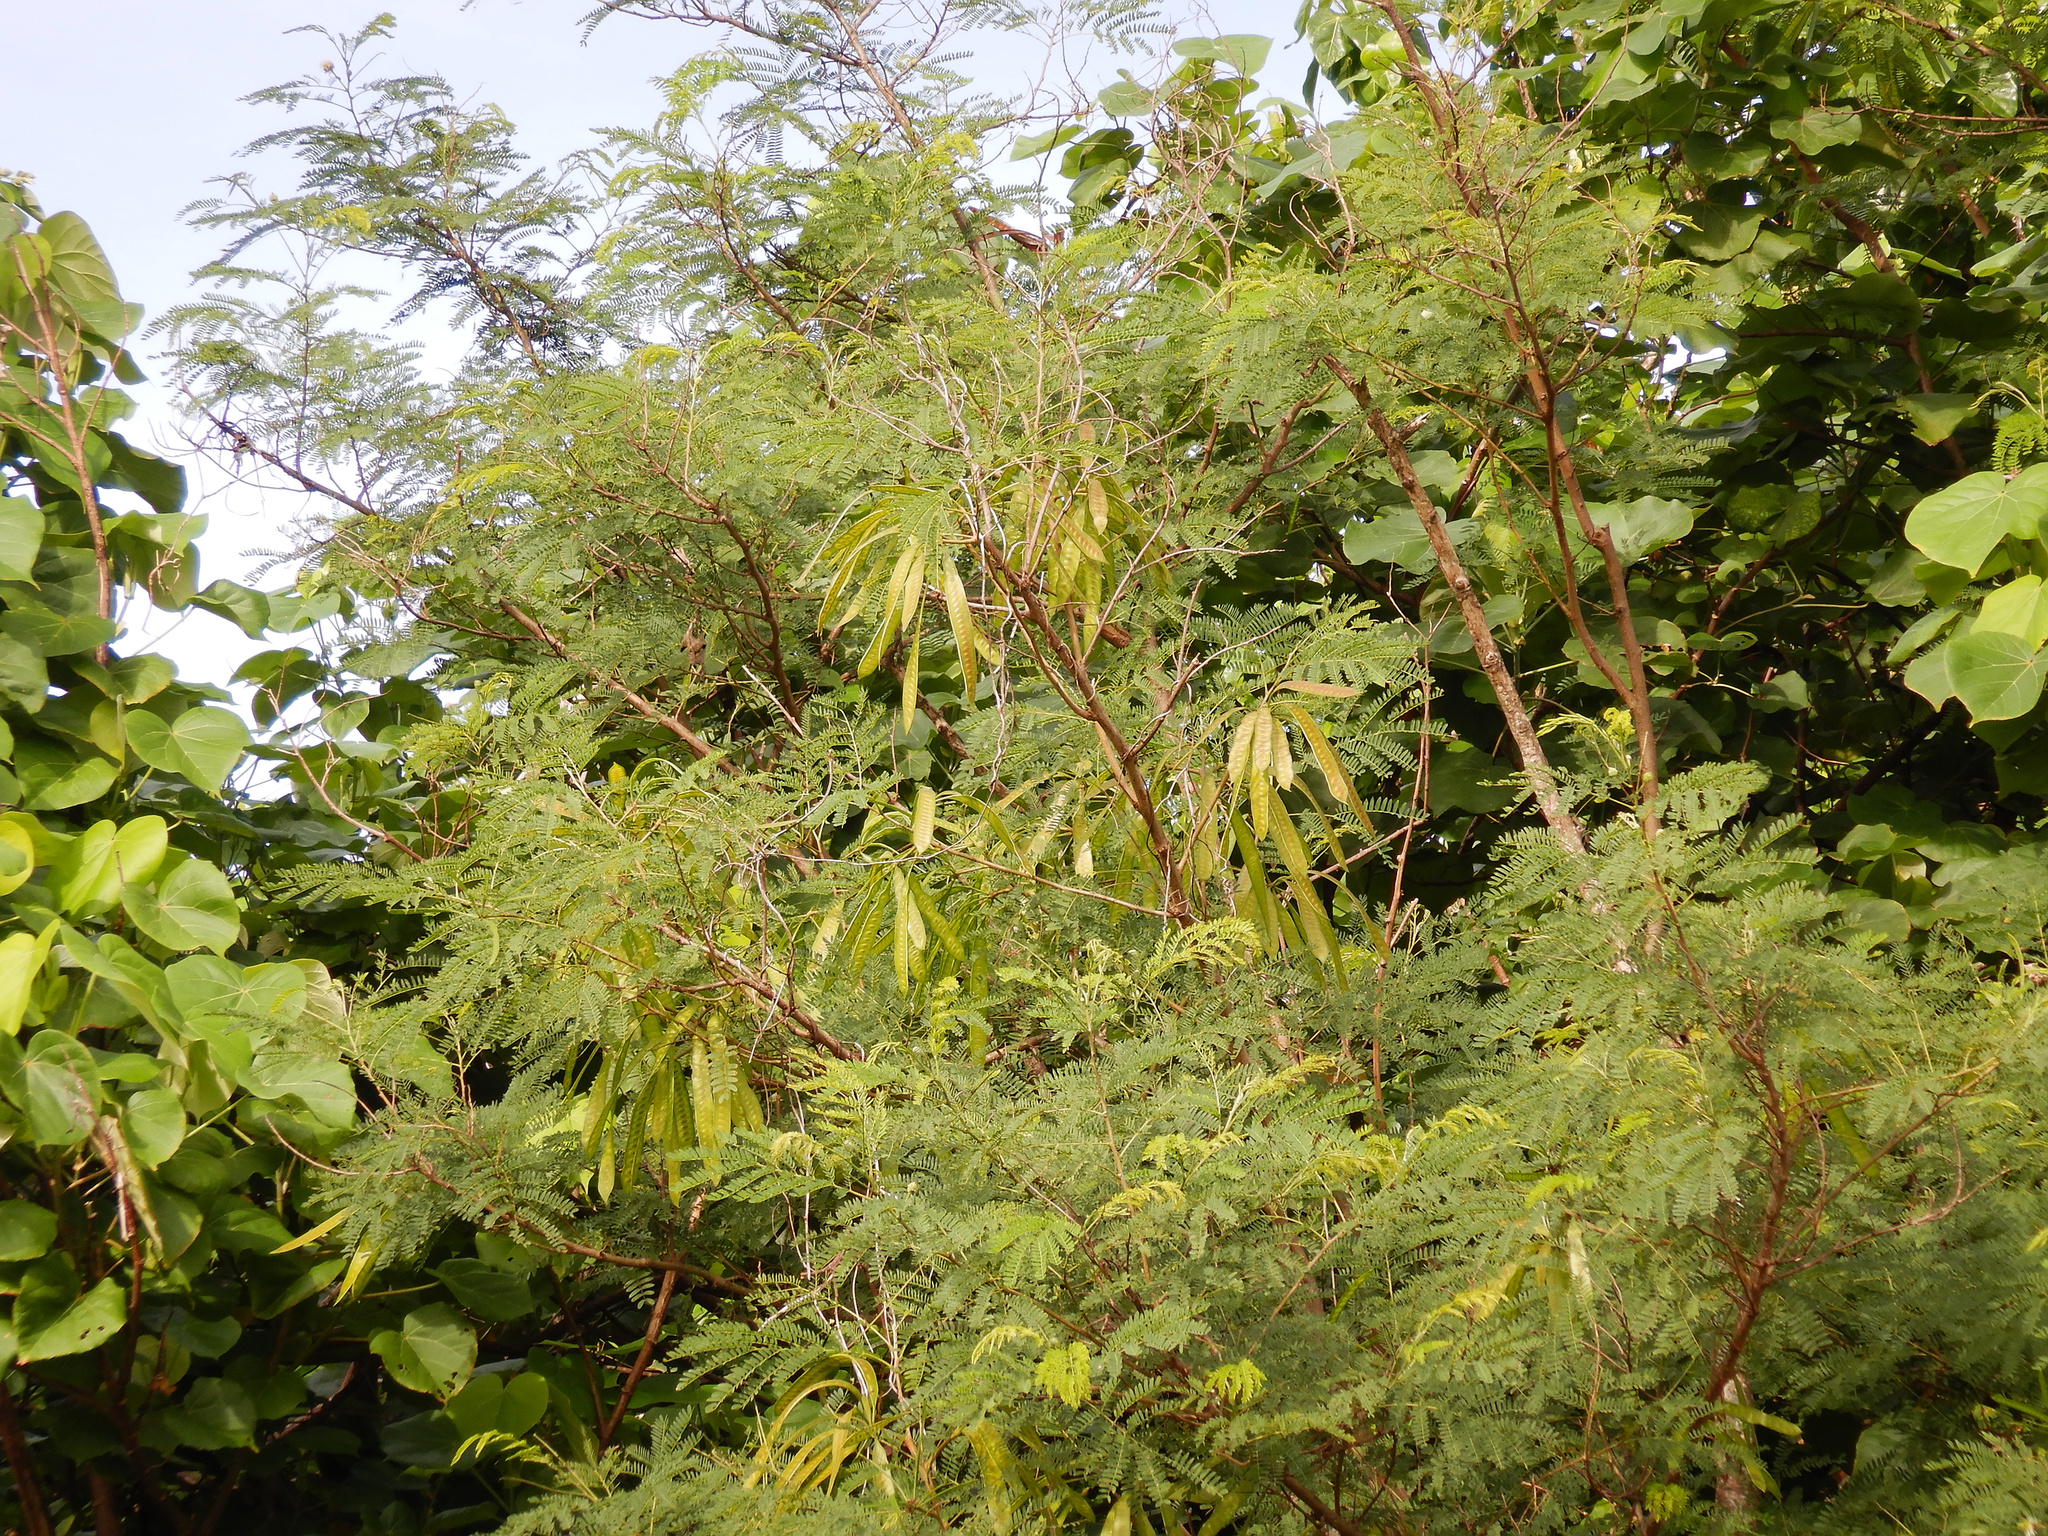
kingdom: Plantae
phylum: Tracheophyta
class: Magnoliopsida
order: Fabales
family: Fabaceae
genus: Leucaena
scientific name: Leucaena leucocephala
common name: White leadtree
